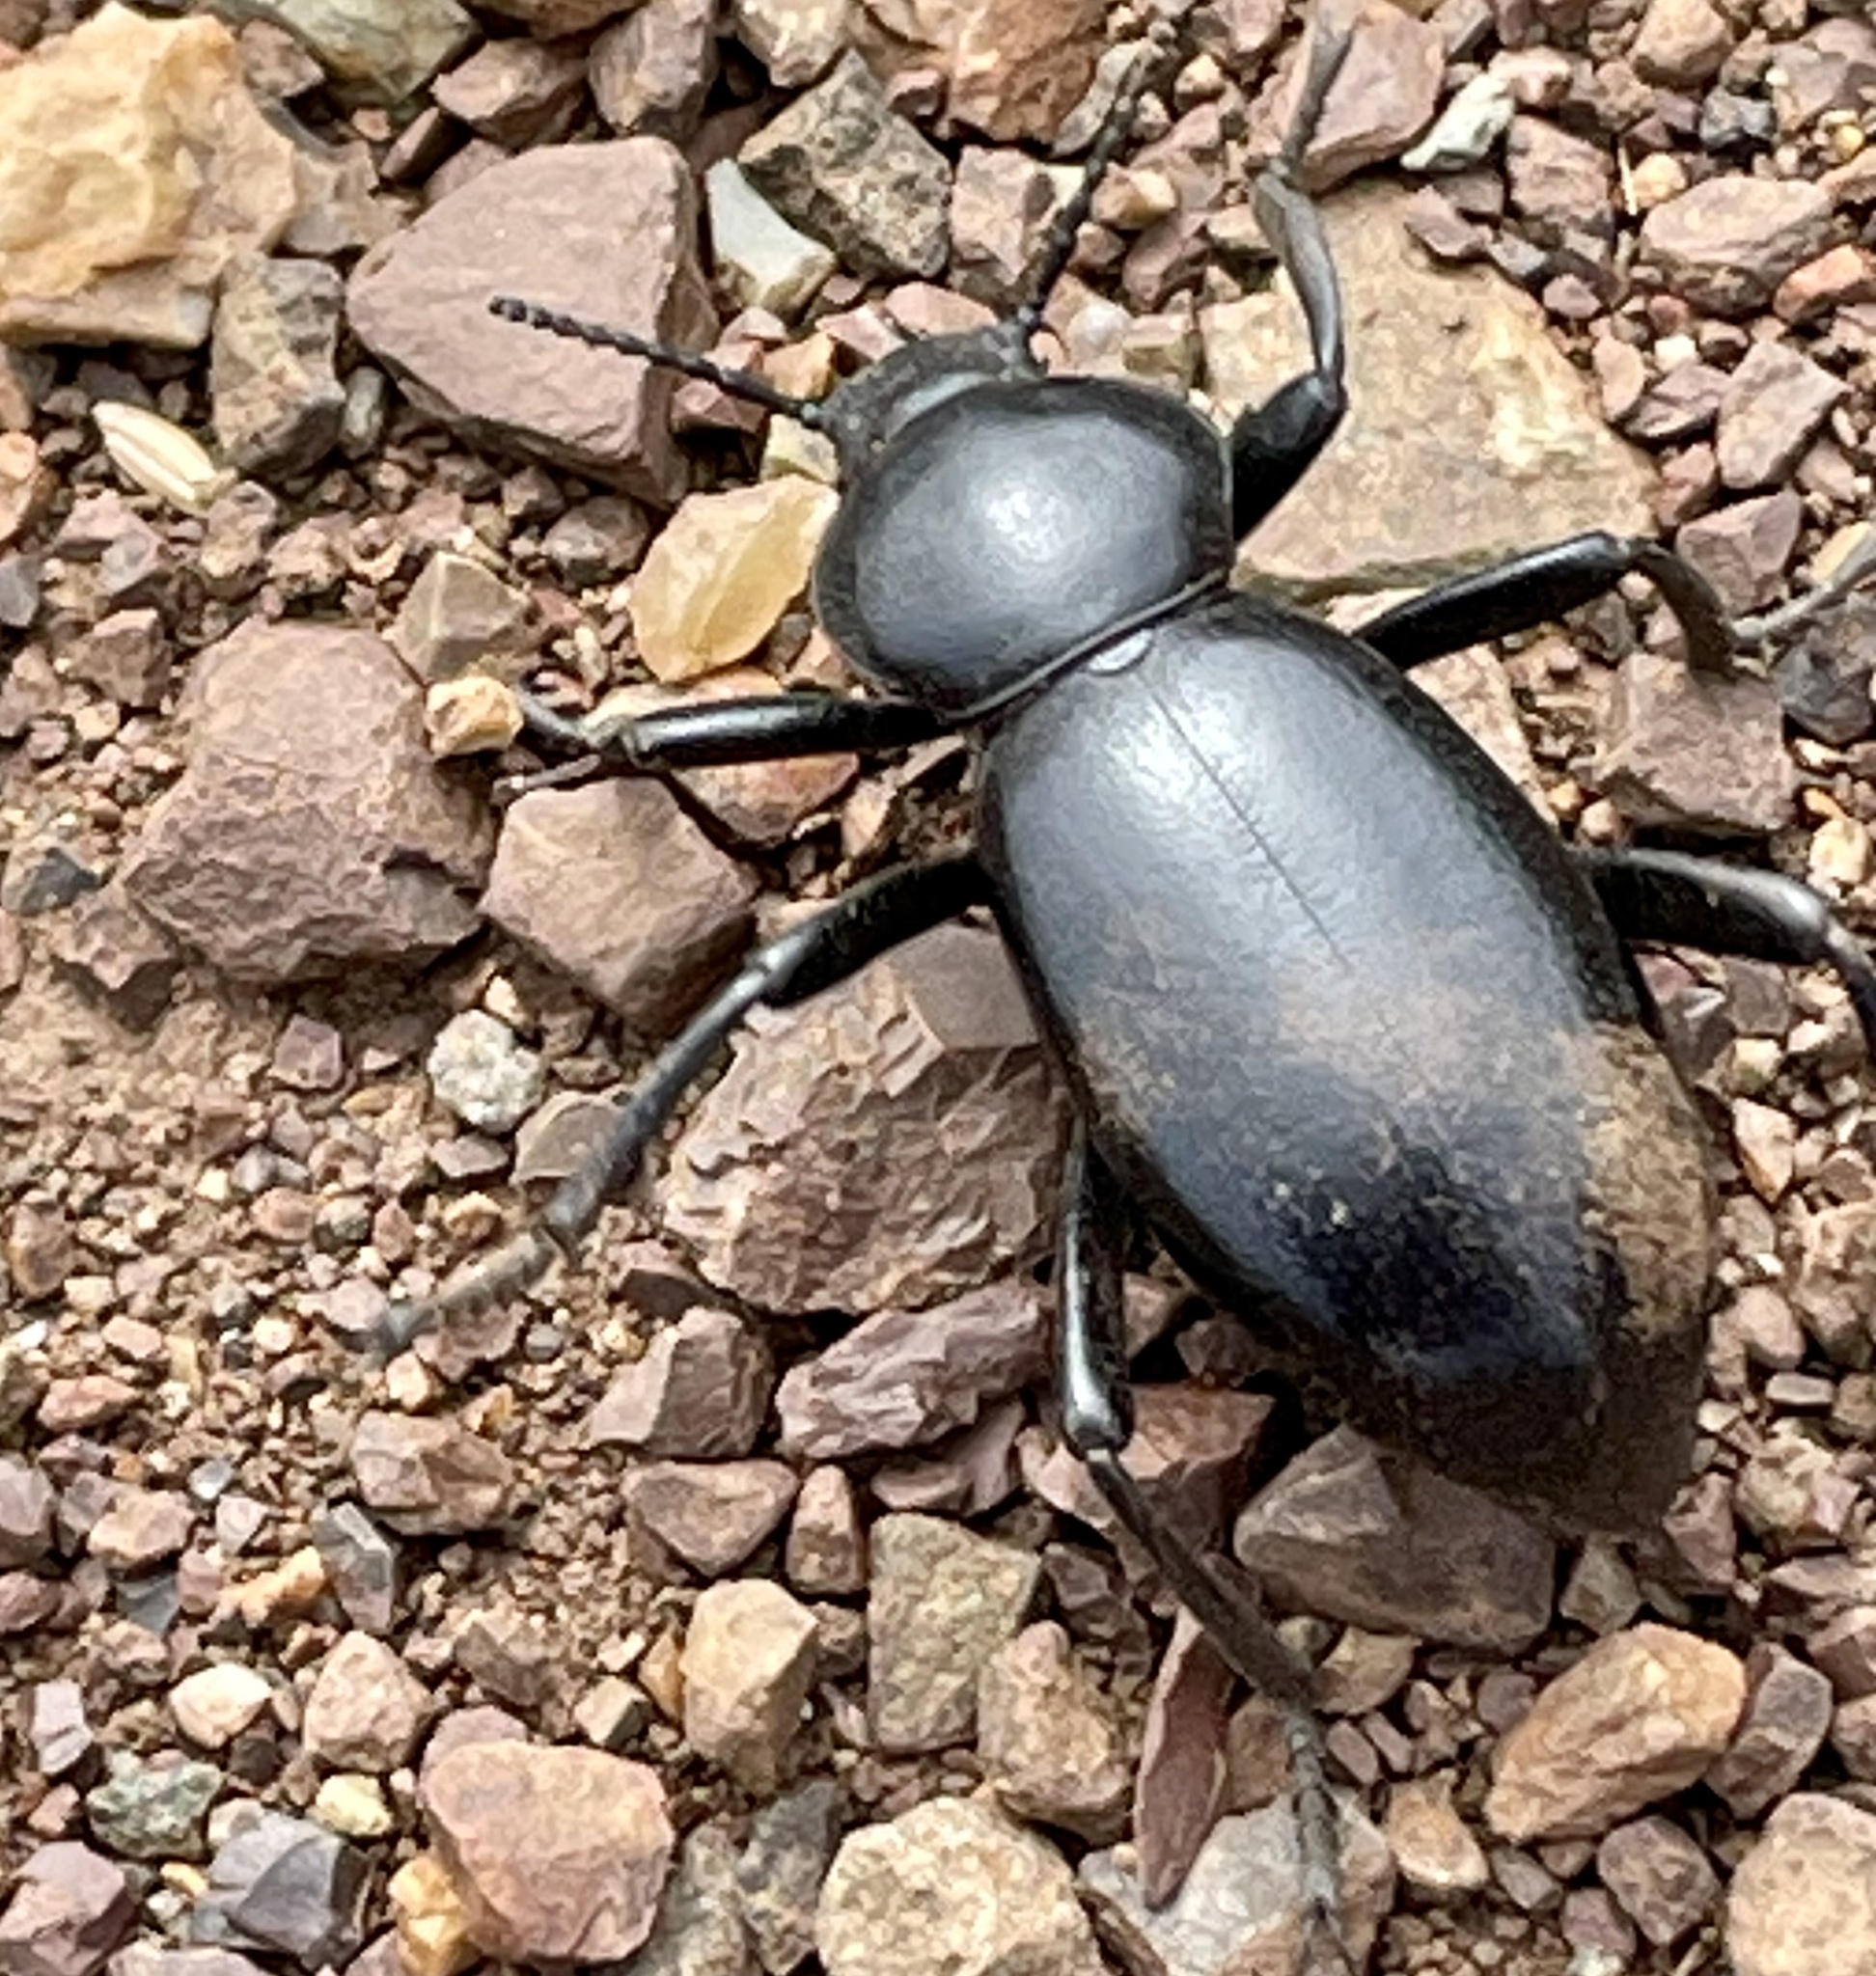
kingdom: Animalia
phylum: Arthropoda
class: Insecta
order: Coleoptera
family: Tenebrionidae
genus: Eleodes
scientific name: Eleodes grandicollis
